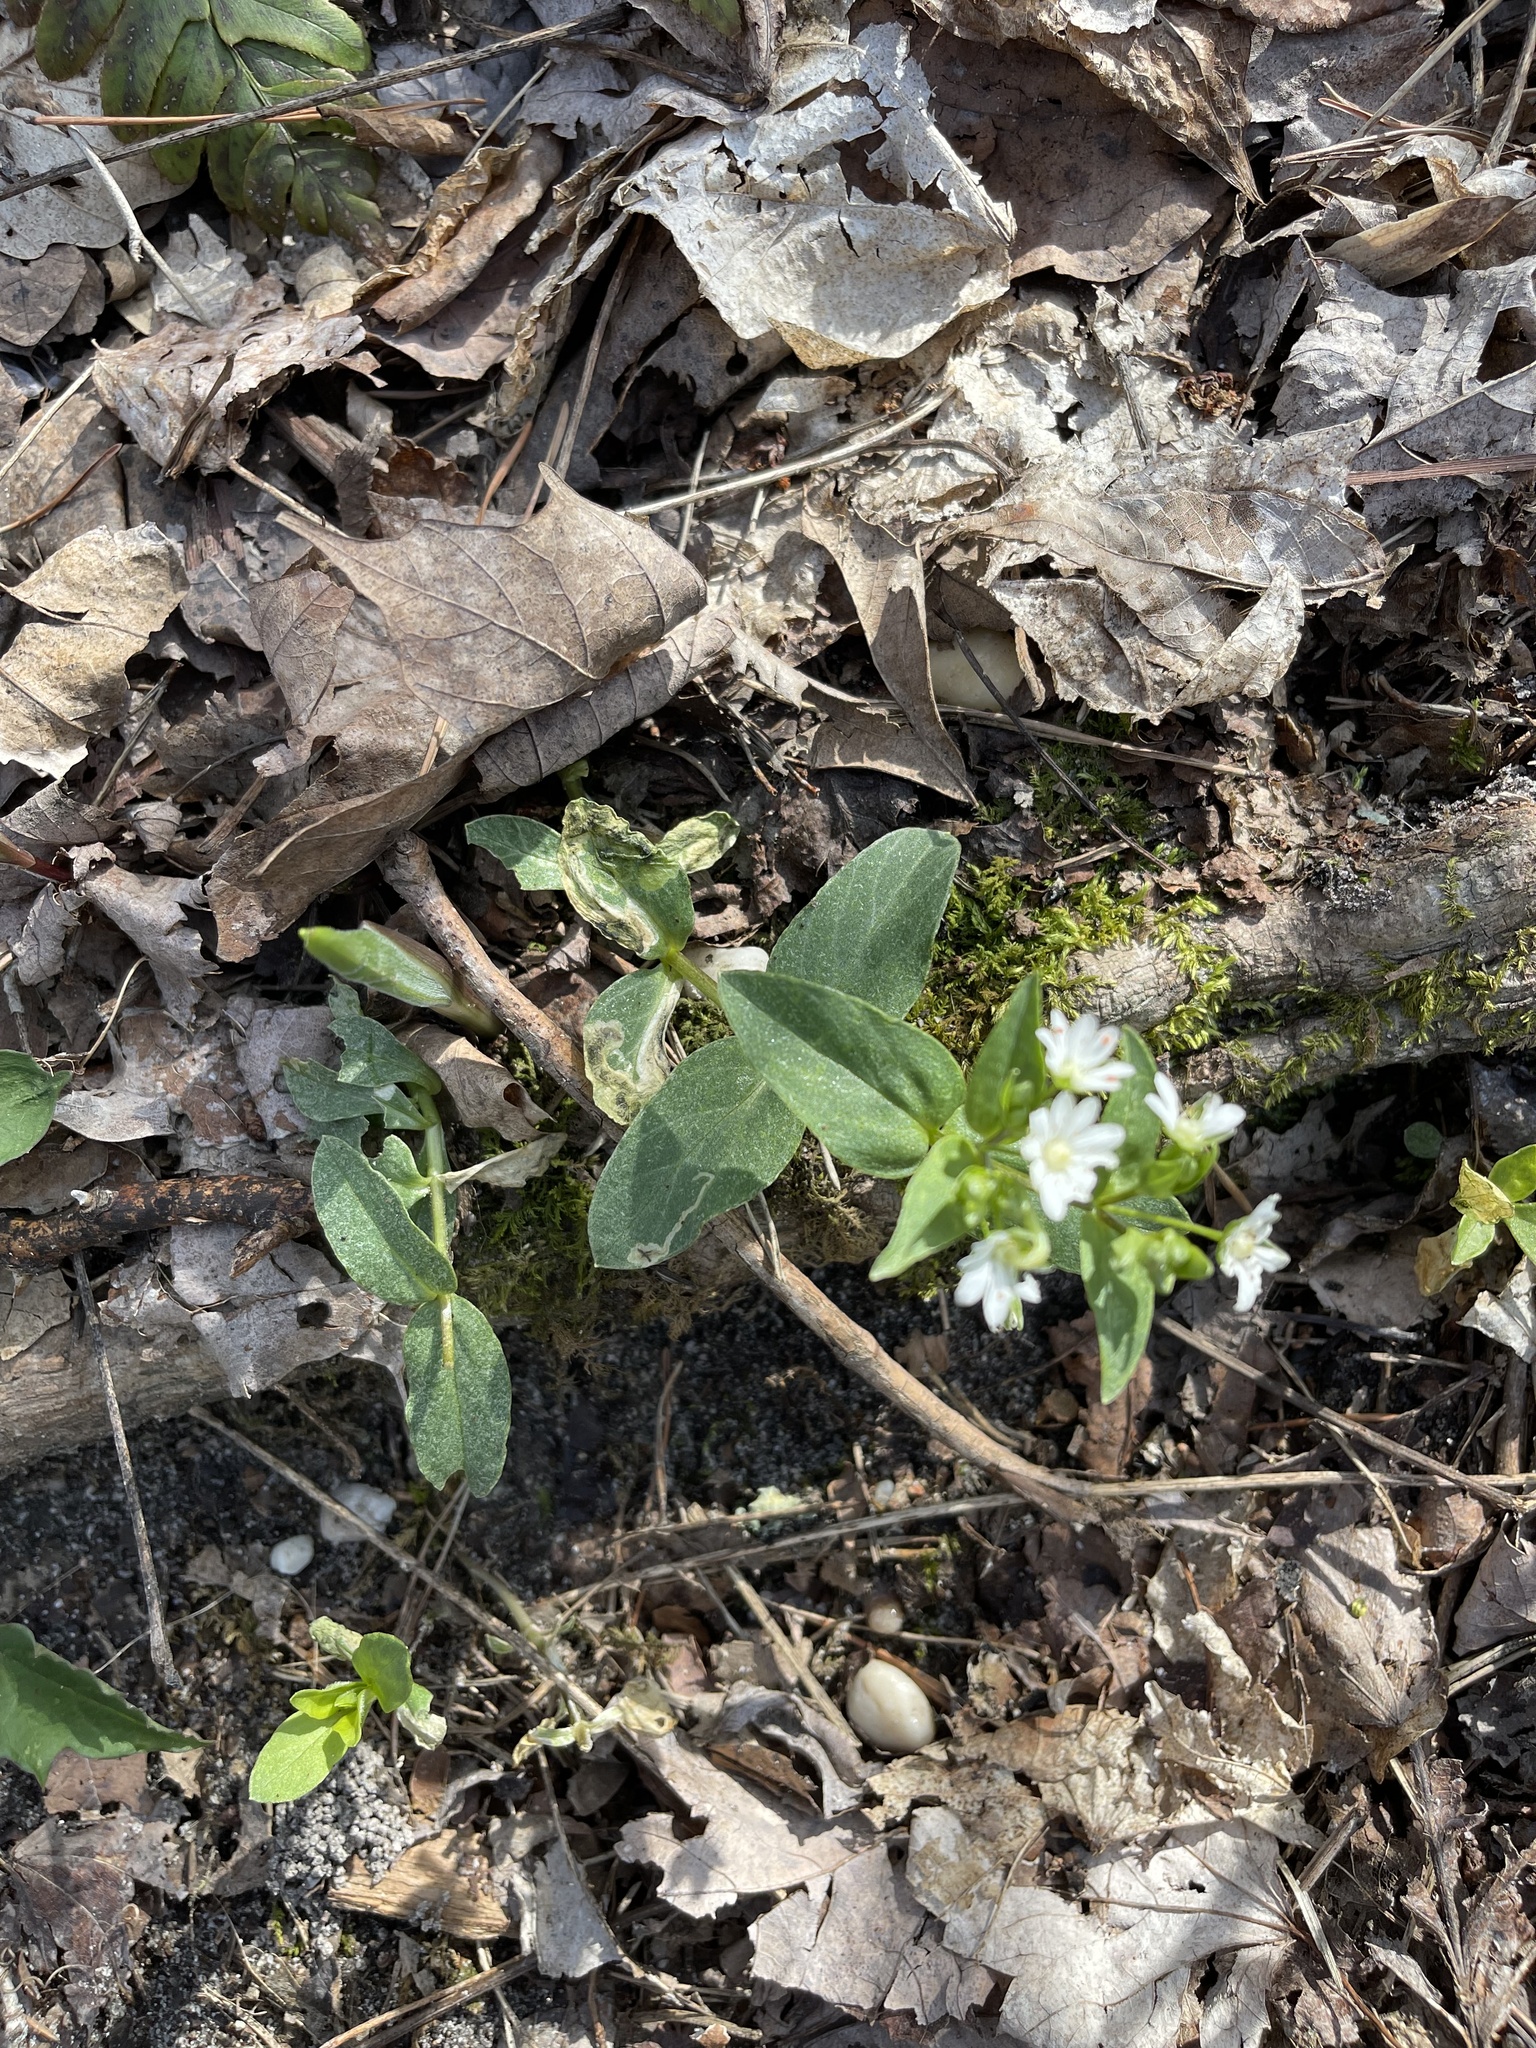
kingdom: Plantae
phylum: Tracheophyta
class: Magnoliopsida
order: Caryophyllales
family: Caryophyllaceae
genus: Stellaria
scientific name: Stellaria pubera
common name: Star chickweed
